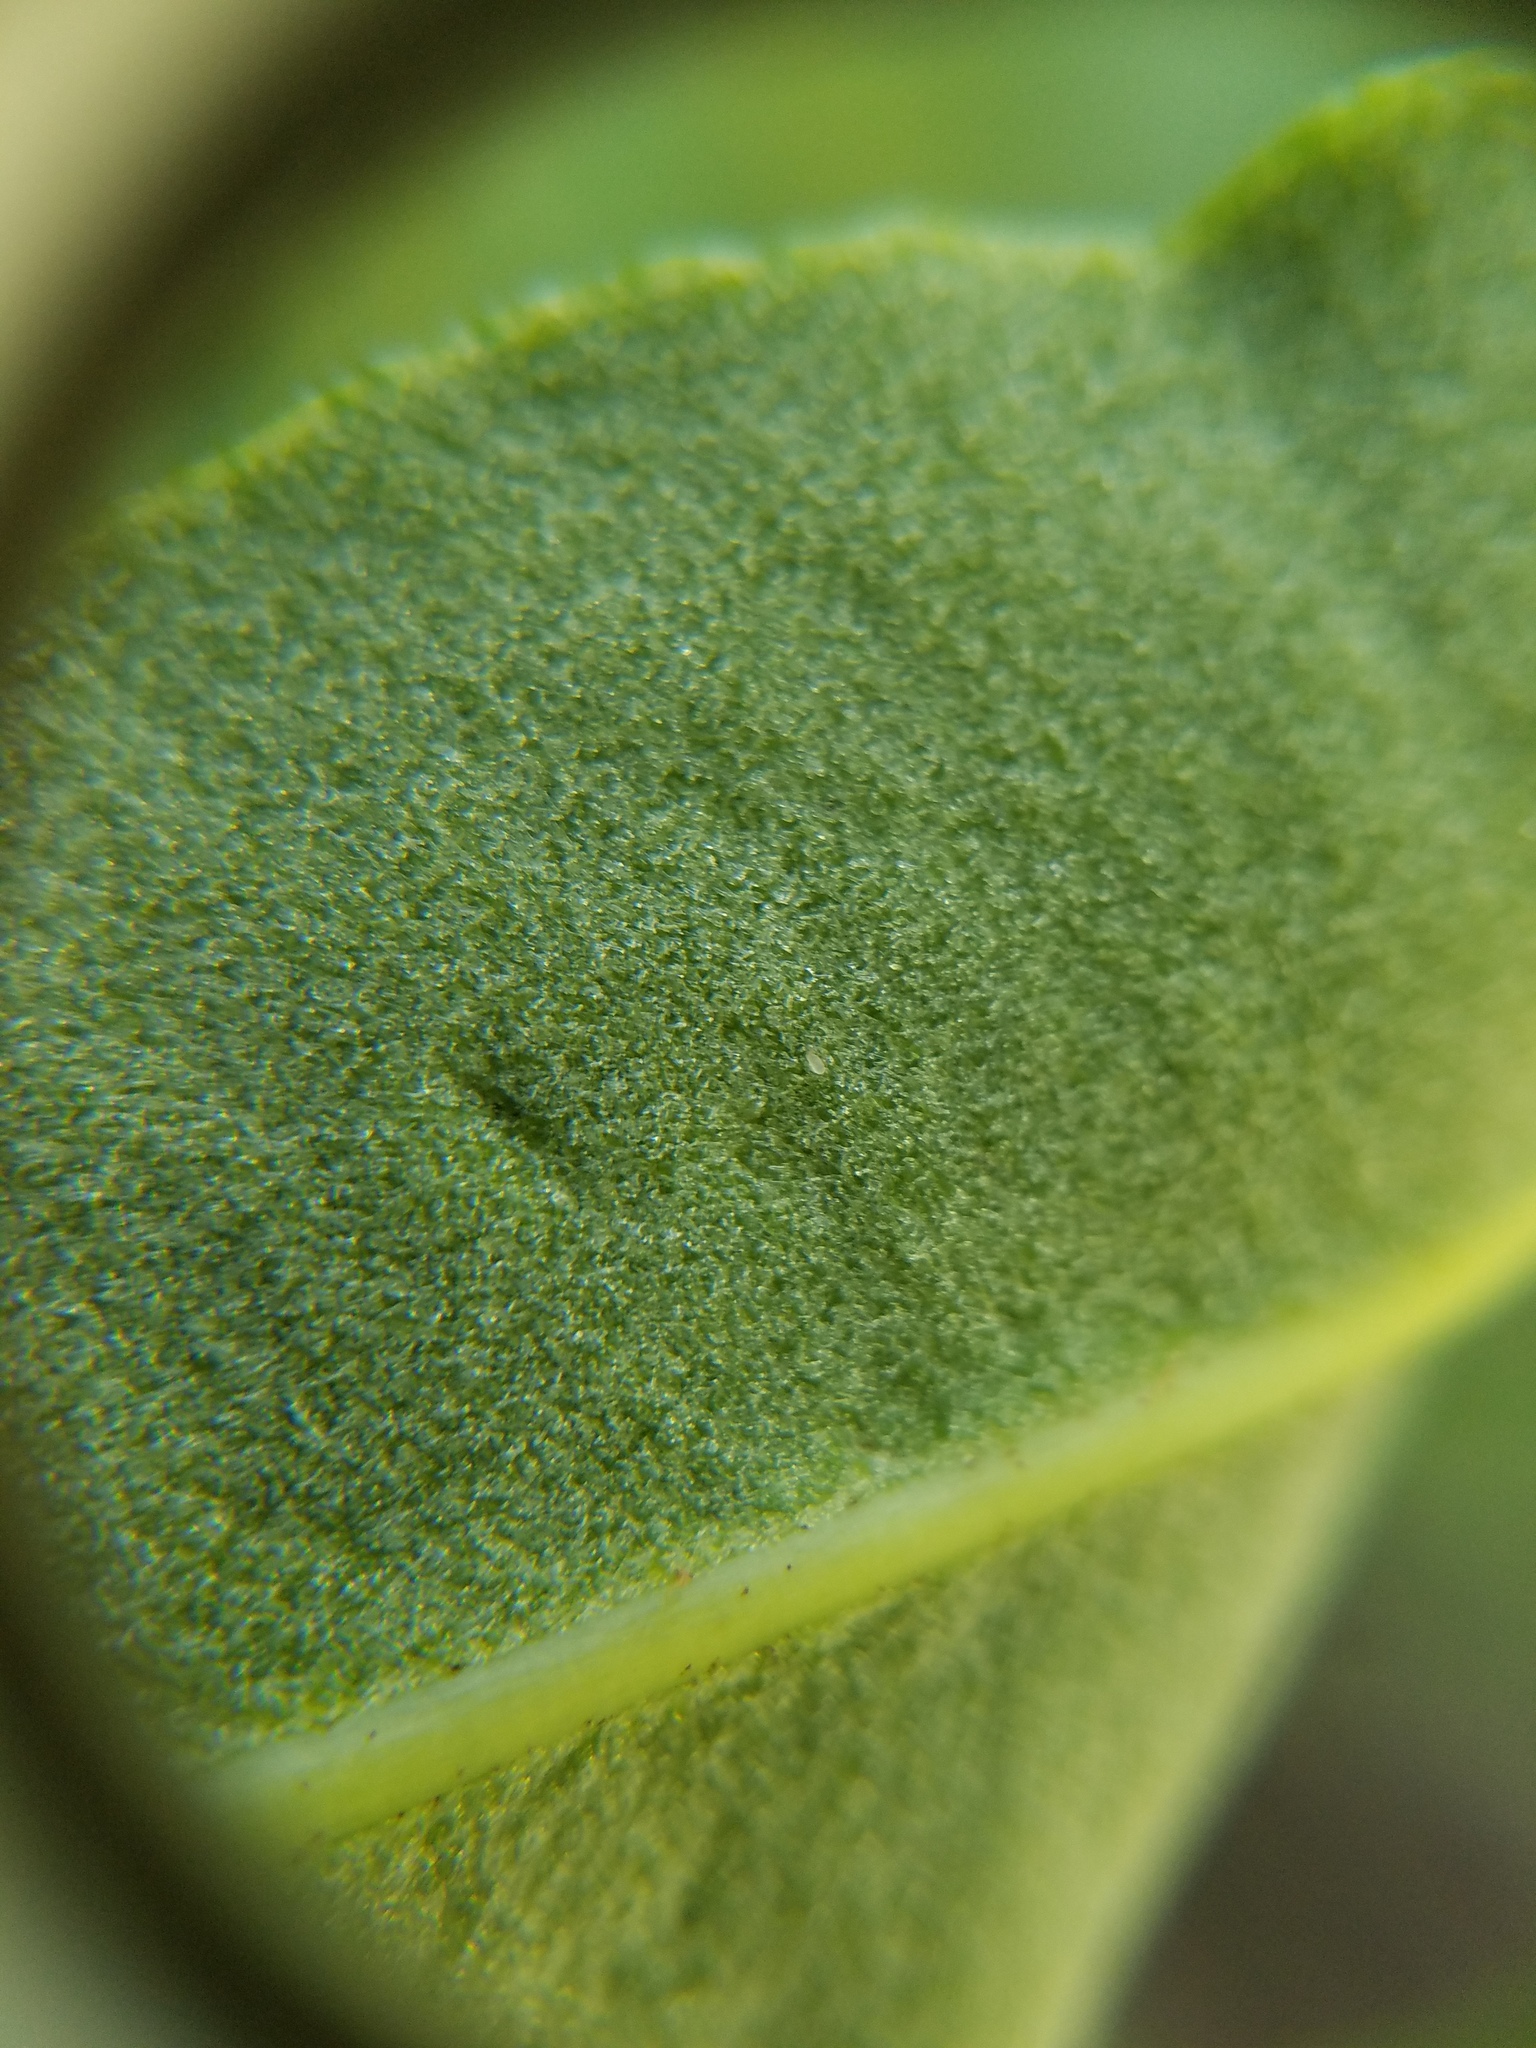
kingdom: Plantae
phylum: Tracheophyta
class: Polypodiopsida
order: Polypodiales
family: Pteridaceae
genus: Acrostichum
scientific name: Acrostichum danaeifolium
